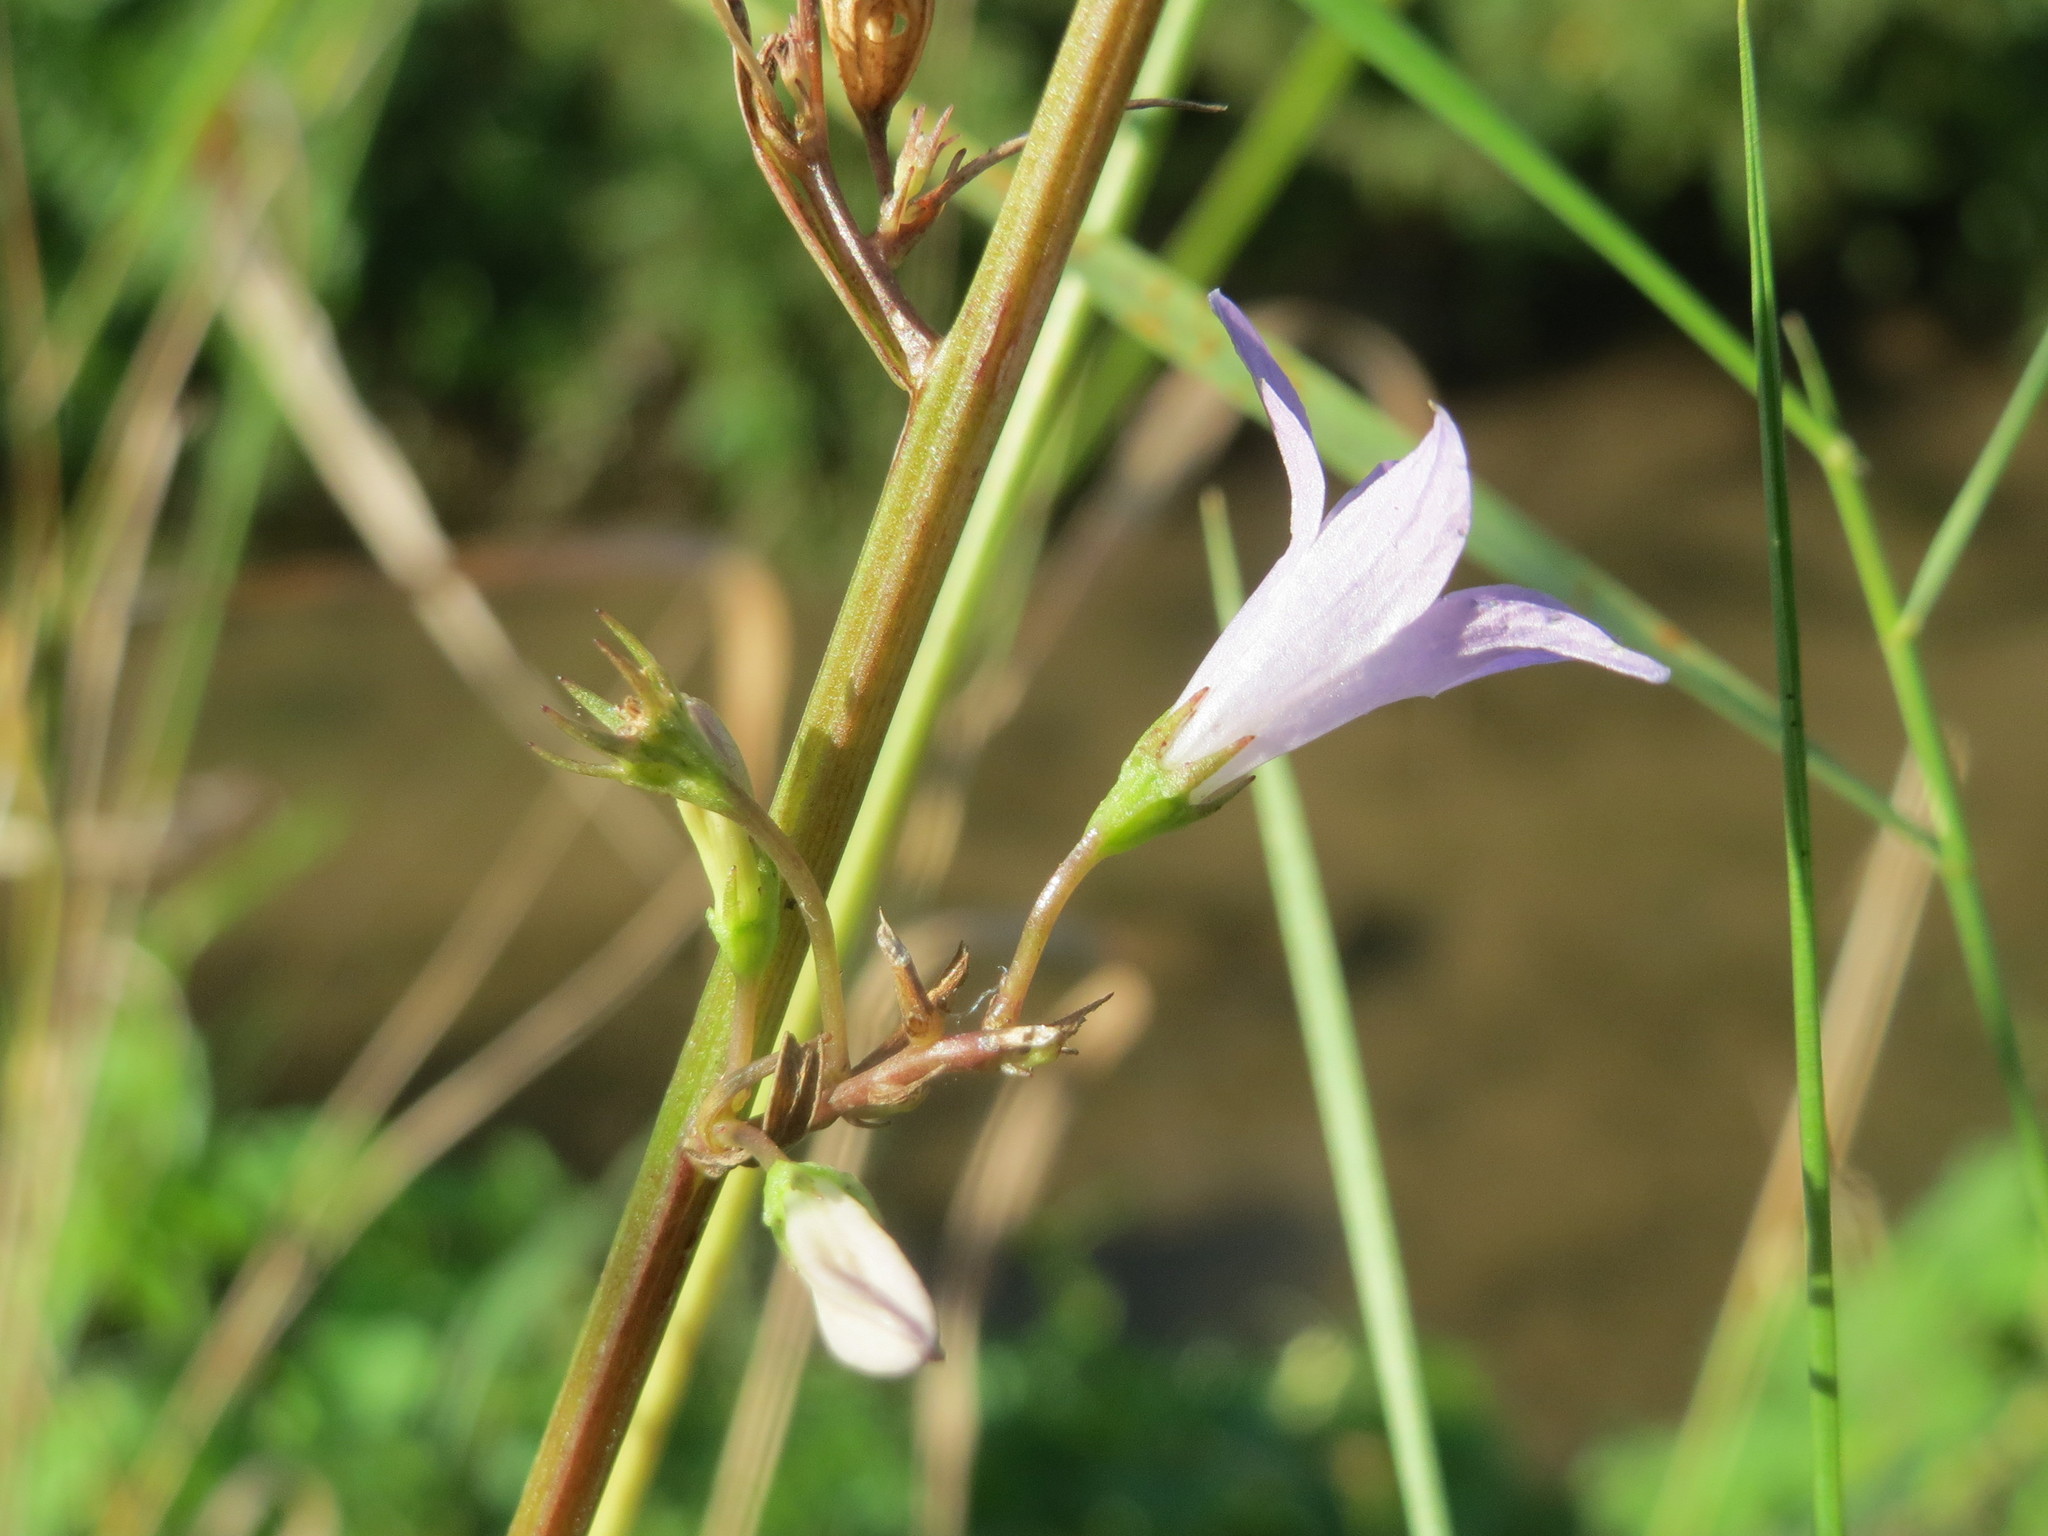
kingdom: Plantae
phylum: Tracheophyta
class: Magnoliopsida
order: Asterales
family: Campanulaceae
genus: Campanula
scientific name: Campanula rapunculus
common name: Rampion bellflower
